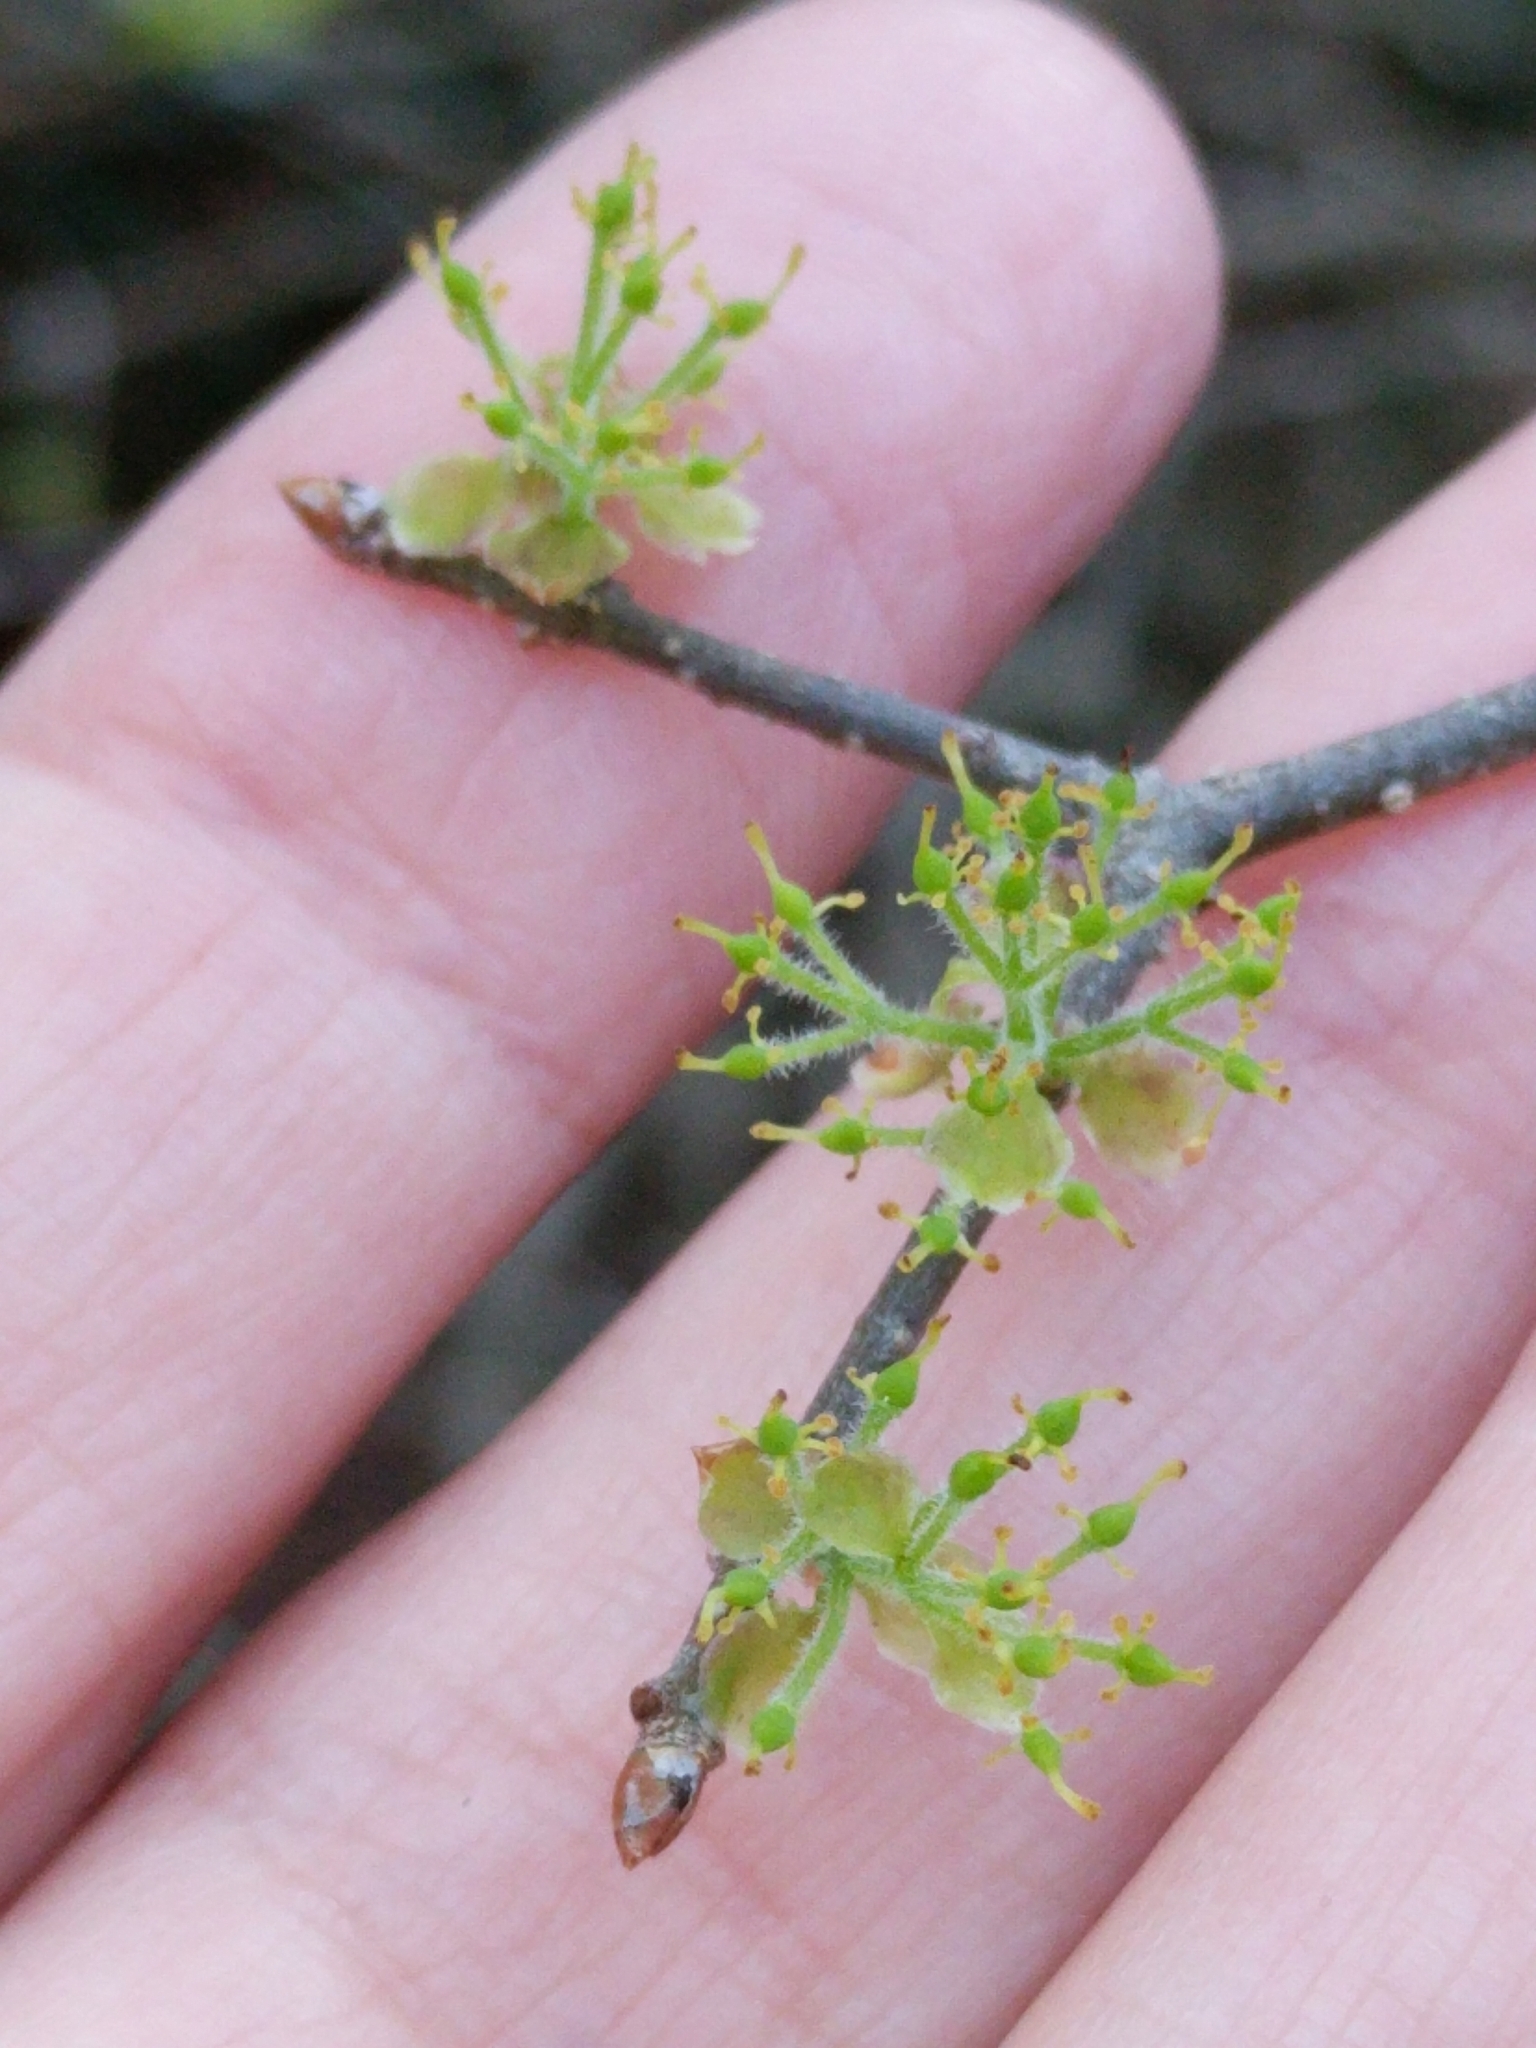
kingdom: Plantae
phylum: Tracheophyta
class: Magnoliopsida
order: Lamiales
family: Oleaceae
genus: Forestiera
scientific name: Forestiera pubescens
